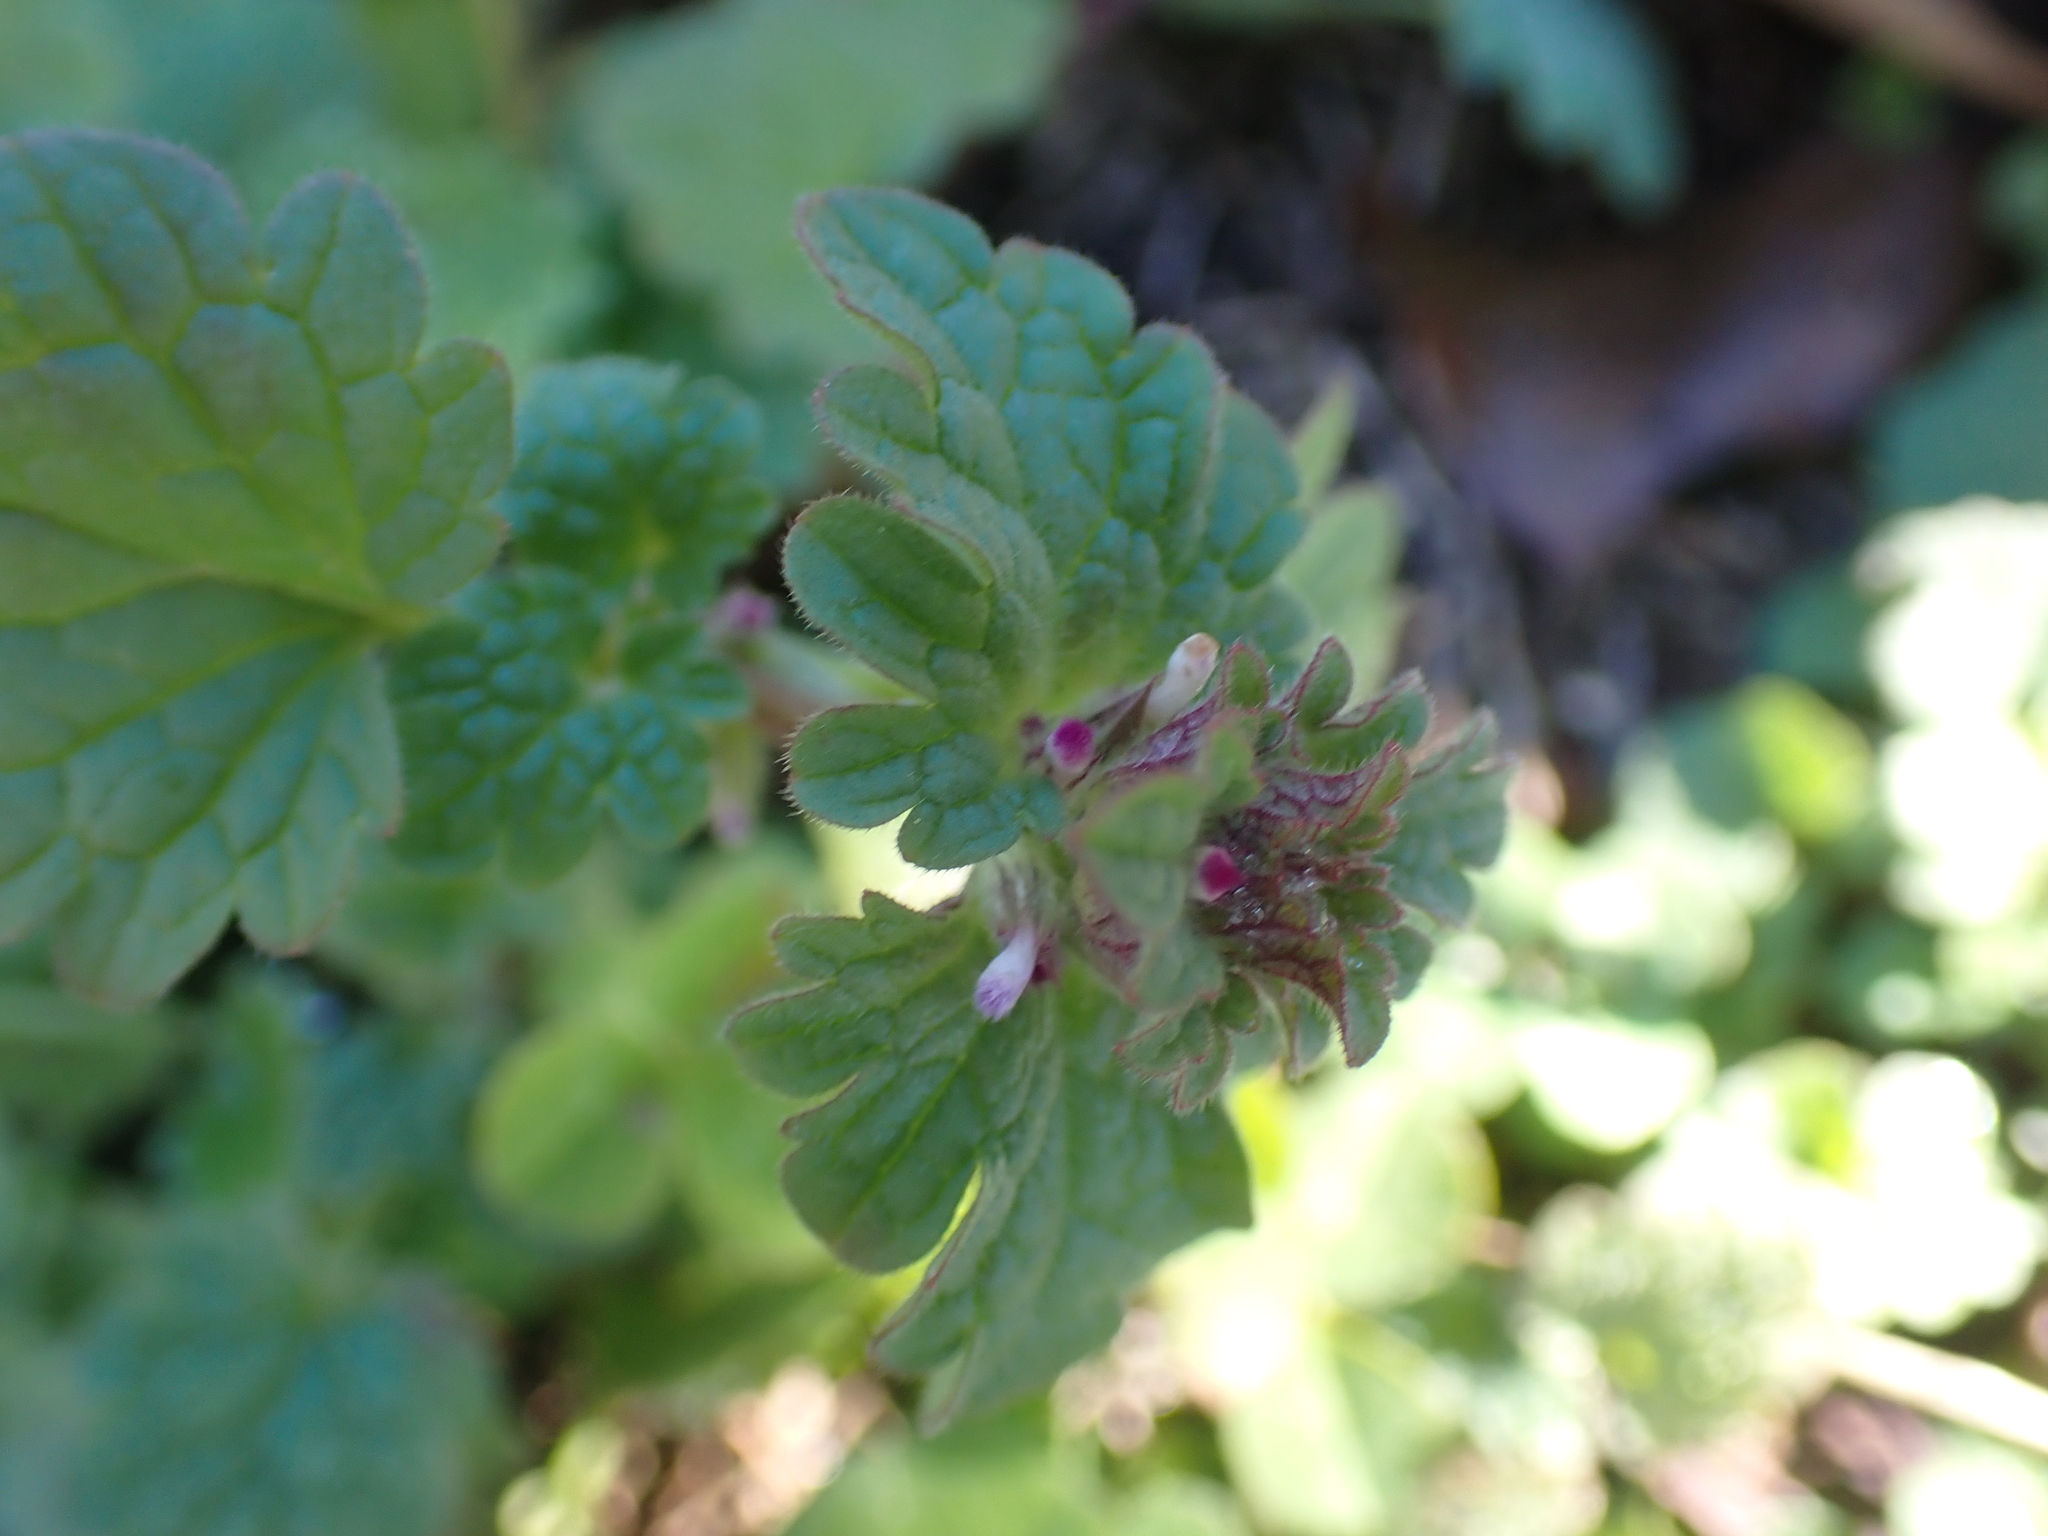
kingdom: Plantae
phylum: Tracheophyta
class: Magnoliopsida
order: Lamiales
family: Lamiaceae
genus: Lamium
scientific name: Lamium amplexicaule
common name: Henbit dead-nettle
